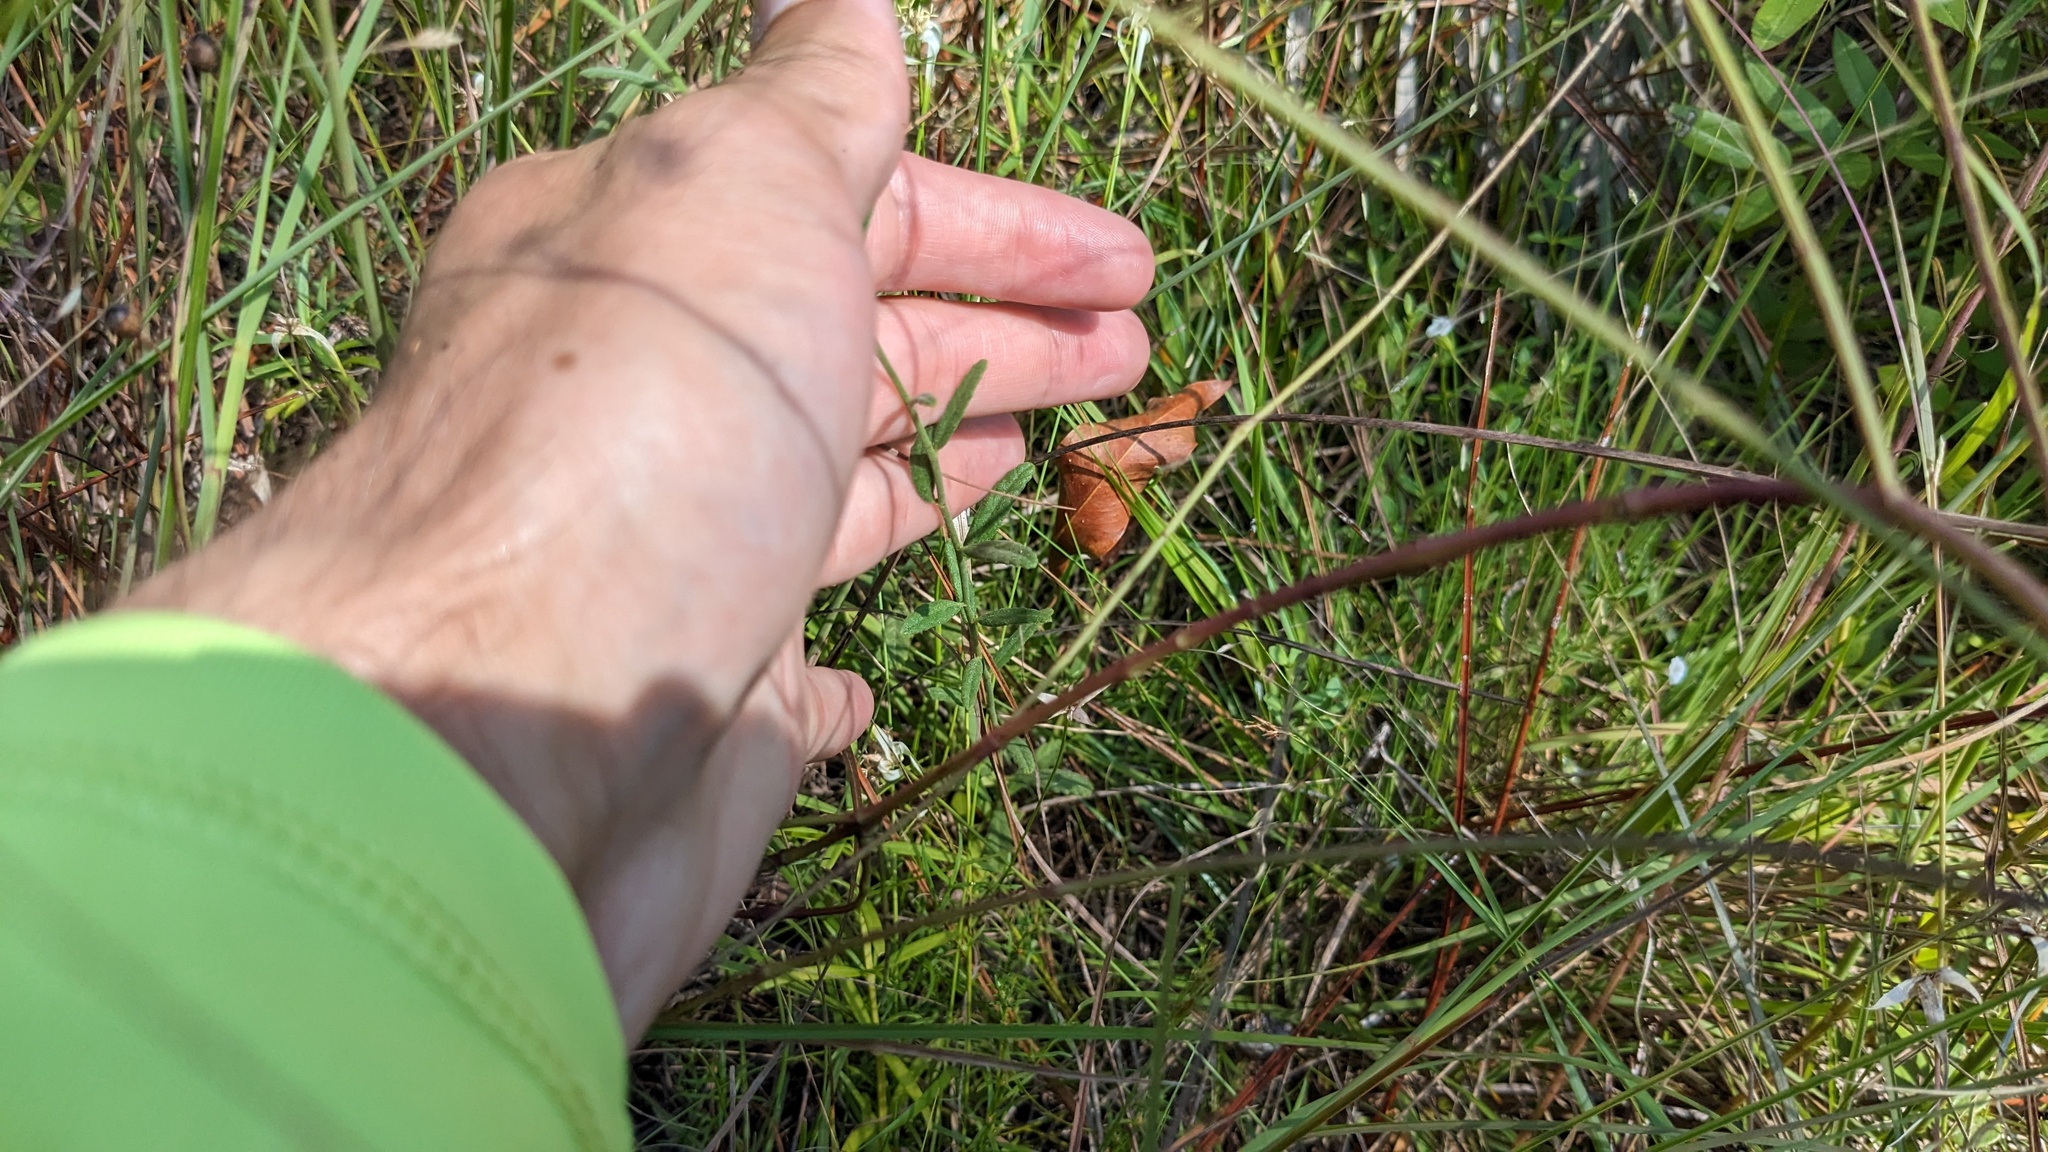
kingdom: Plantae
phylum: Tracheophyta
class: Magnoliopsida
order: Malpighiales
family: Turneraceae
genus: Piriqueta
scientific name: Piriqueta cistoides
